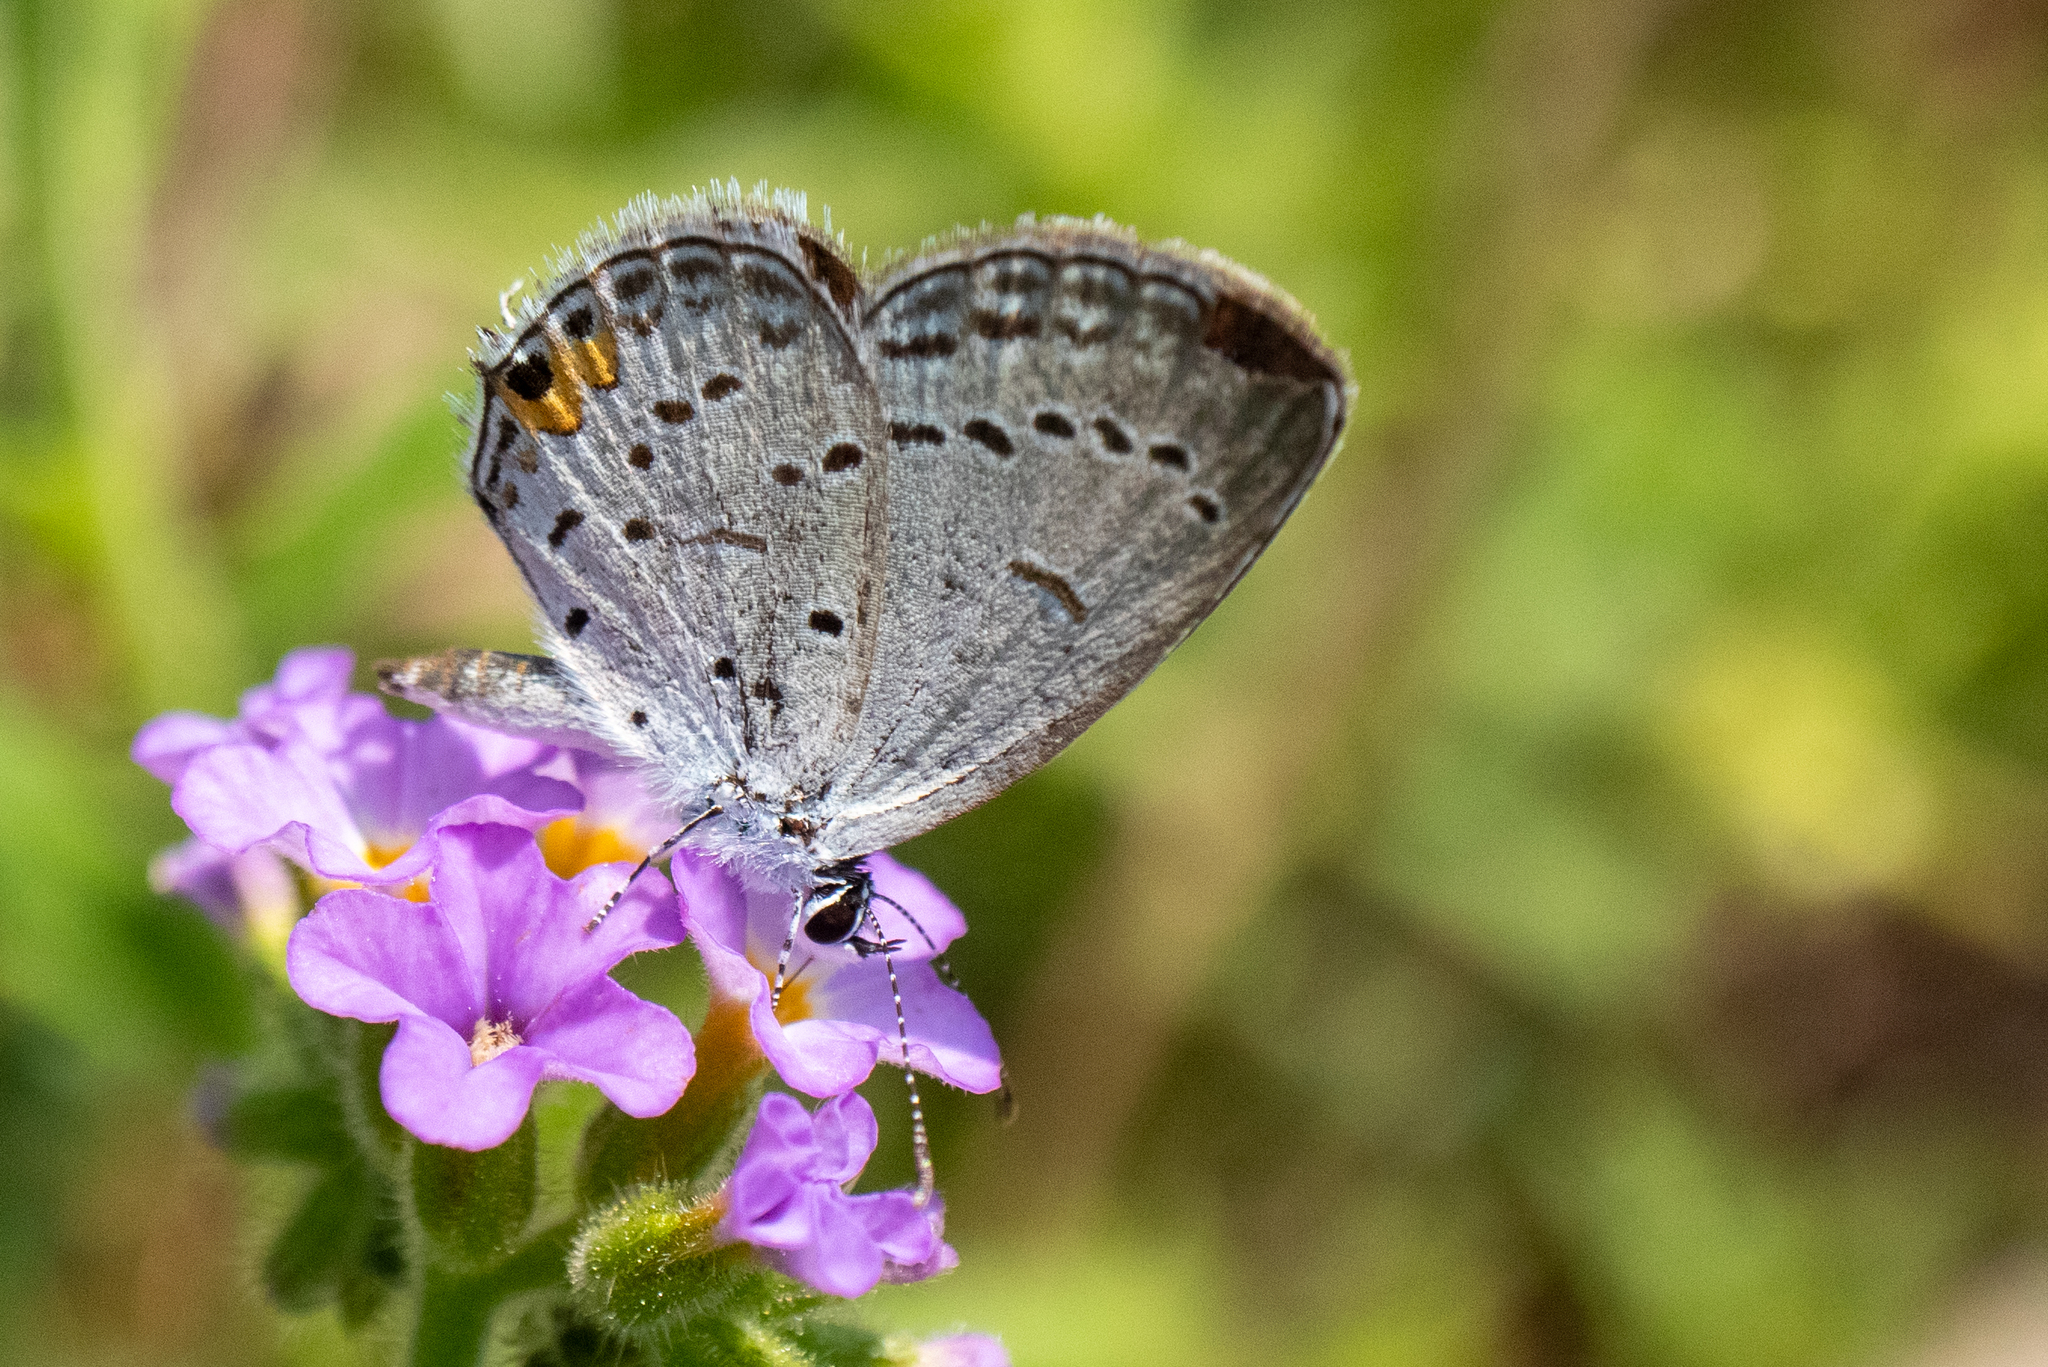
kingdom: Animalia
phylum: Arthropoda
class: Insecta
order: Lepidoptera
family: Lycaenidae
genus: Elkalyce
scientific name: Elkalyce comyntas
